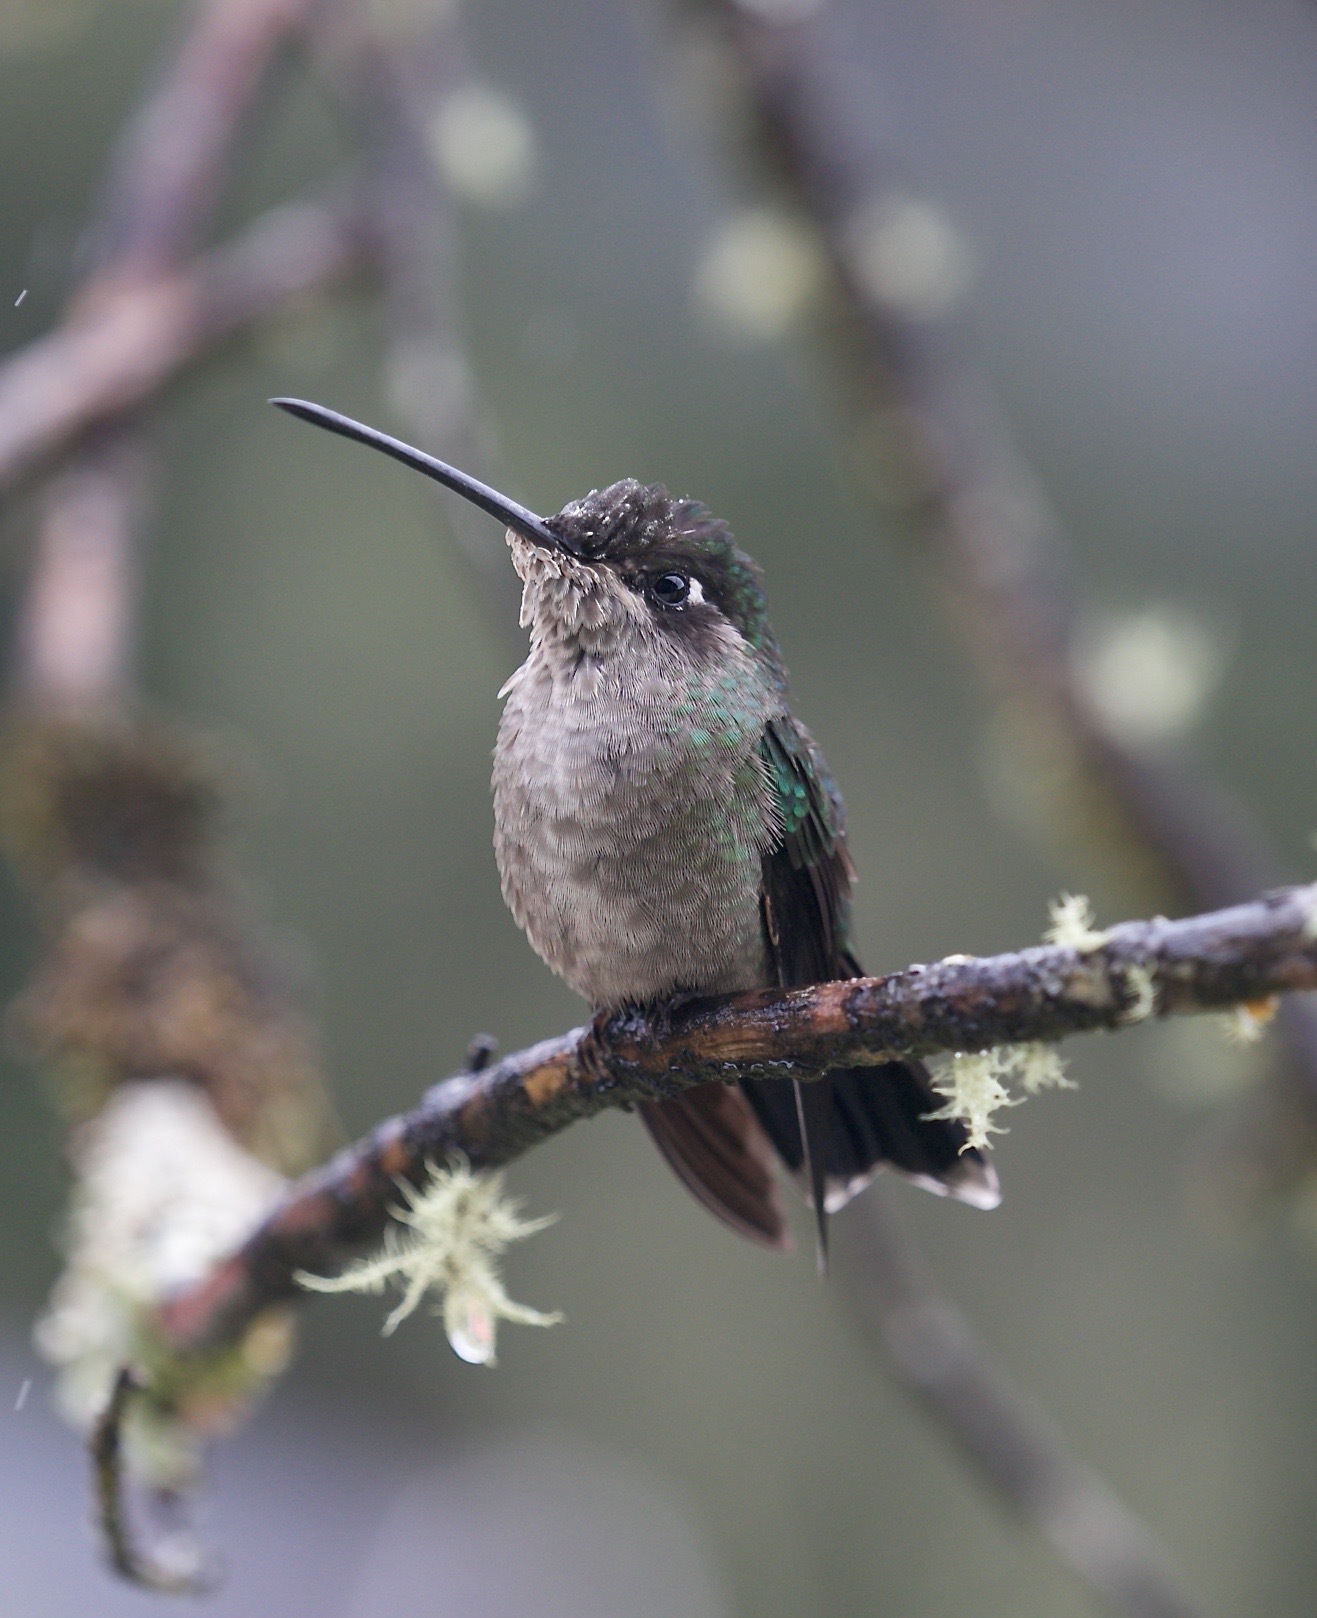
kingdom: Animalia
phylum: Chordata
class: Aves
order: Apodiformes
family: Trochilidae
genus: Eugenes
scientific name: Eugenes spectabilis
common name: Talamanca hummingbird
